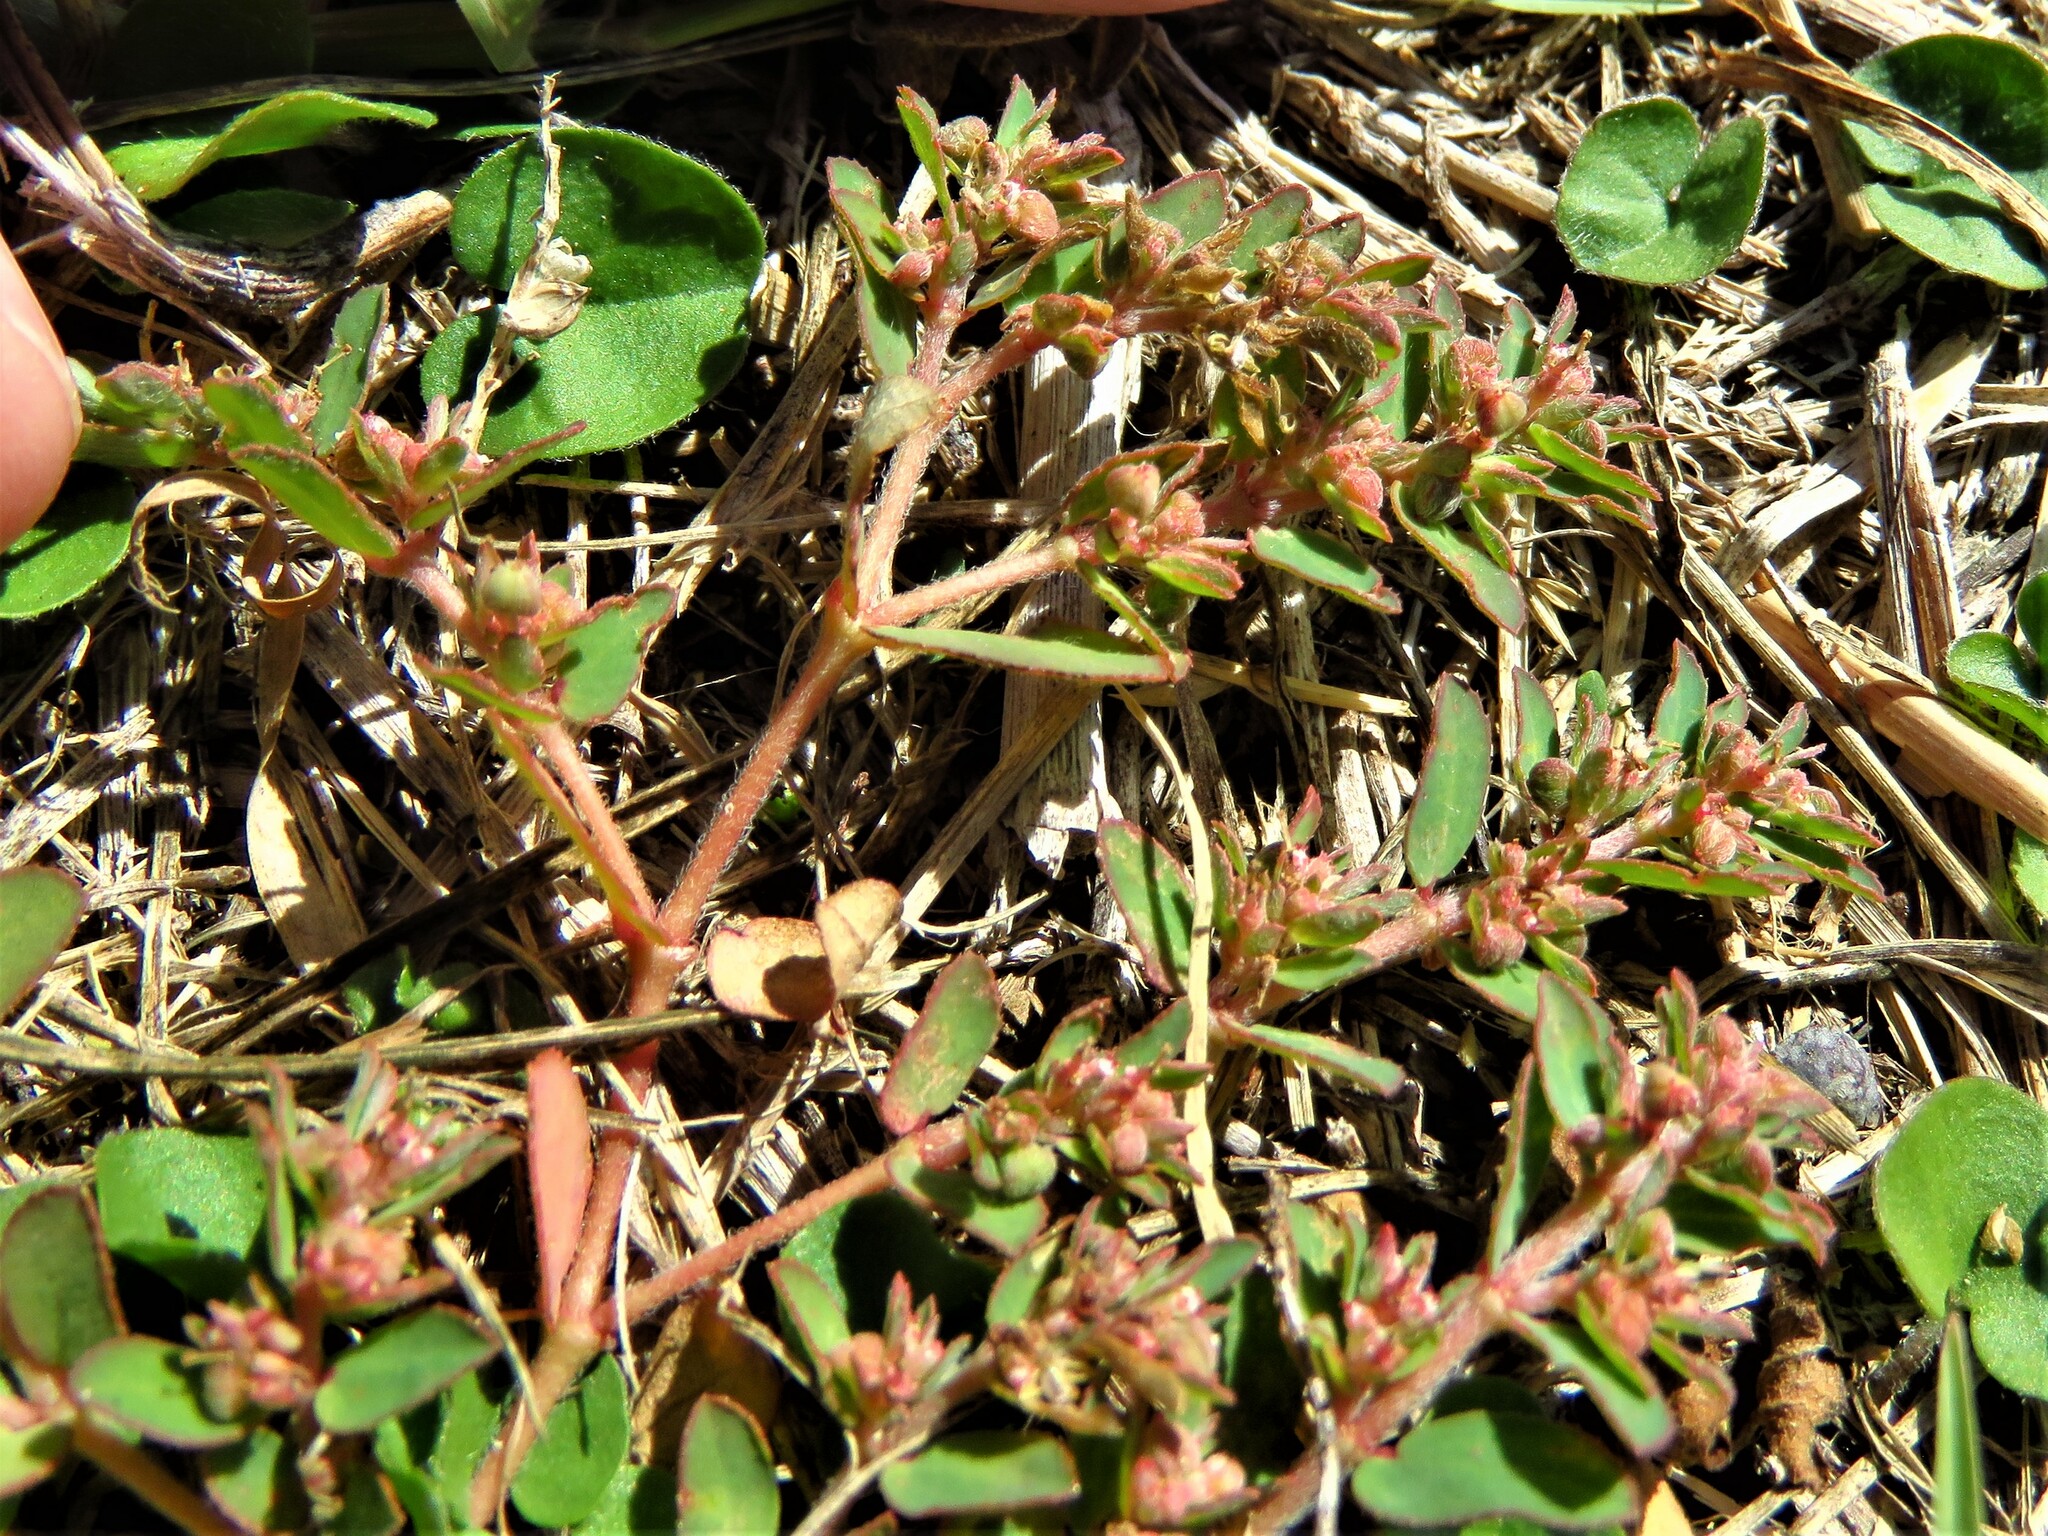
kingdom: Plantae
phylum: Tracheophyta
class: Magnoliopsida
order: Malpighiales
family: Euphorbiaceae
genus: Euphorbia
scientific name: Euphorbia maculata
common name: Spotted spurge
